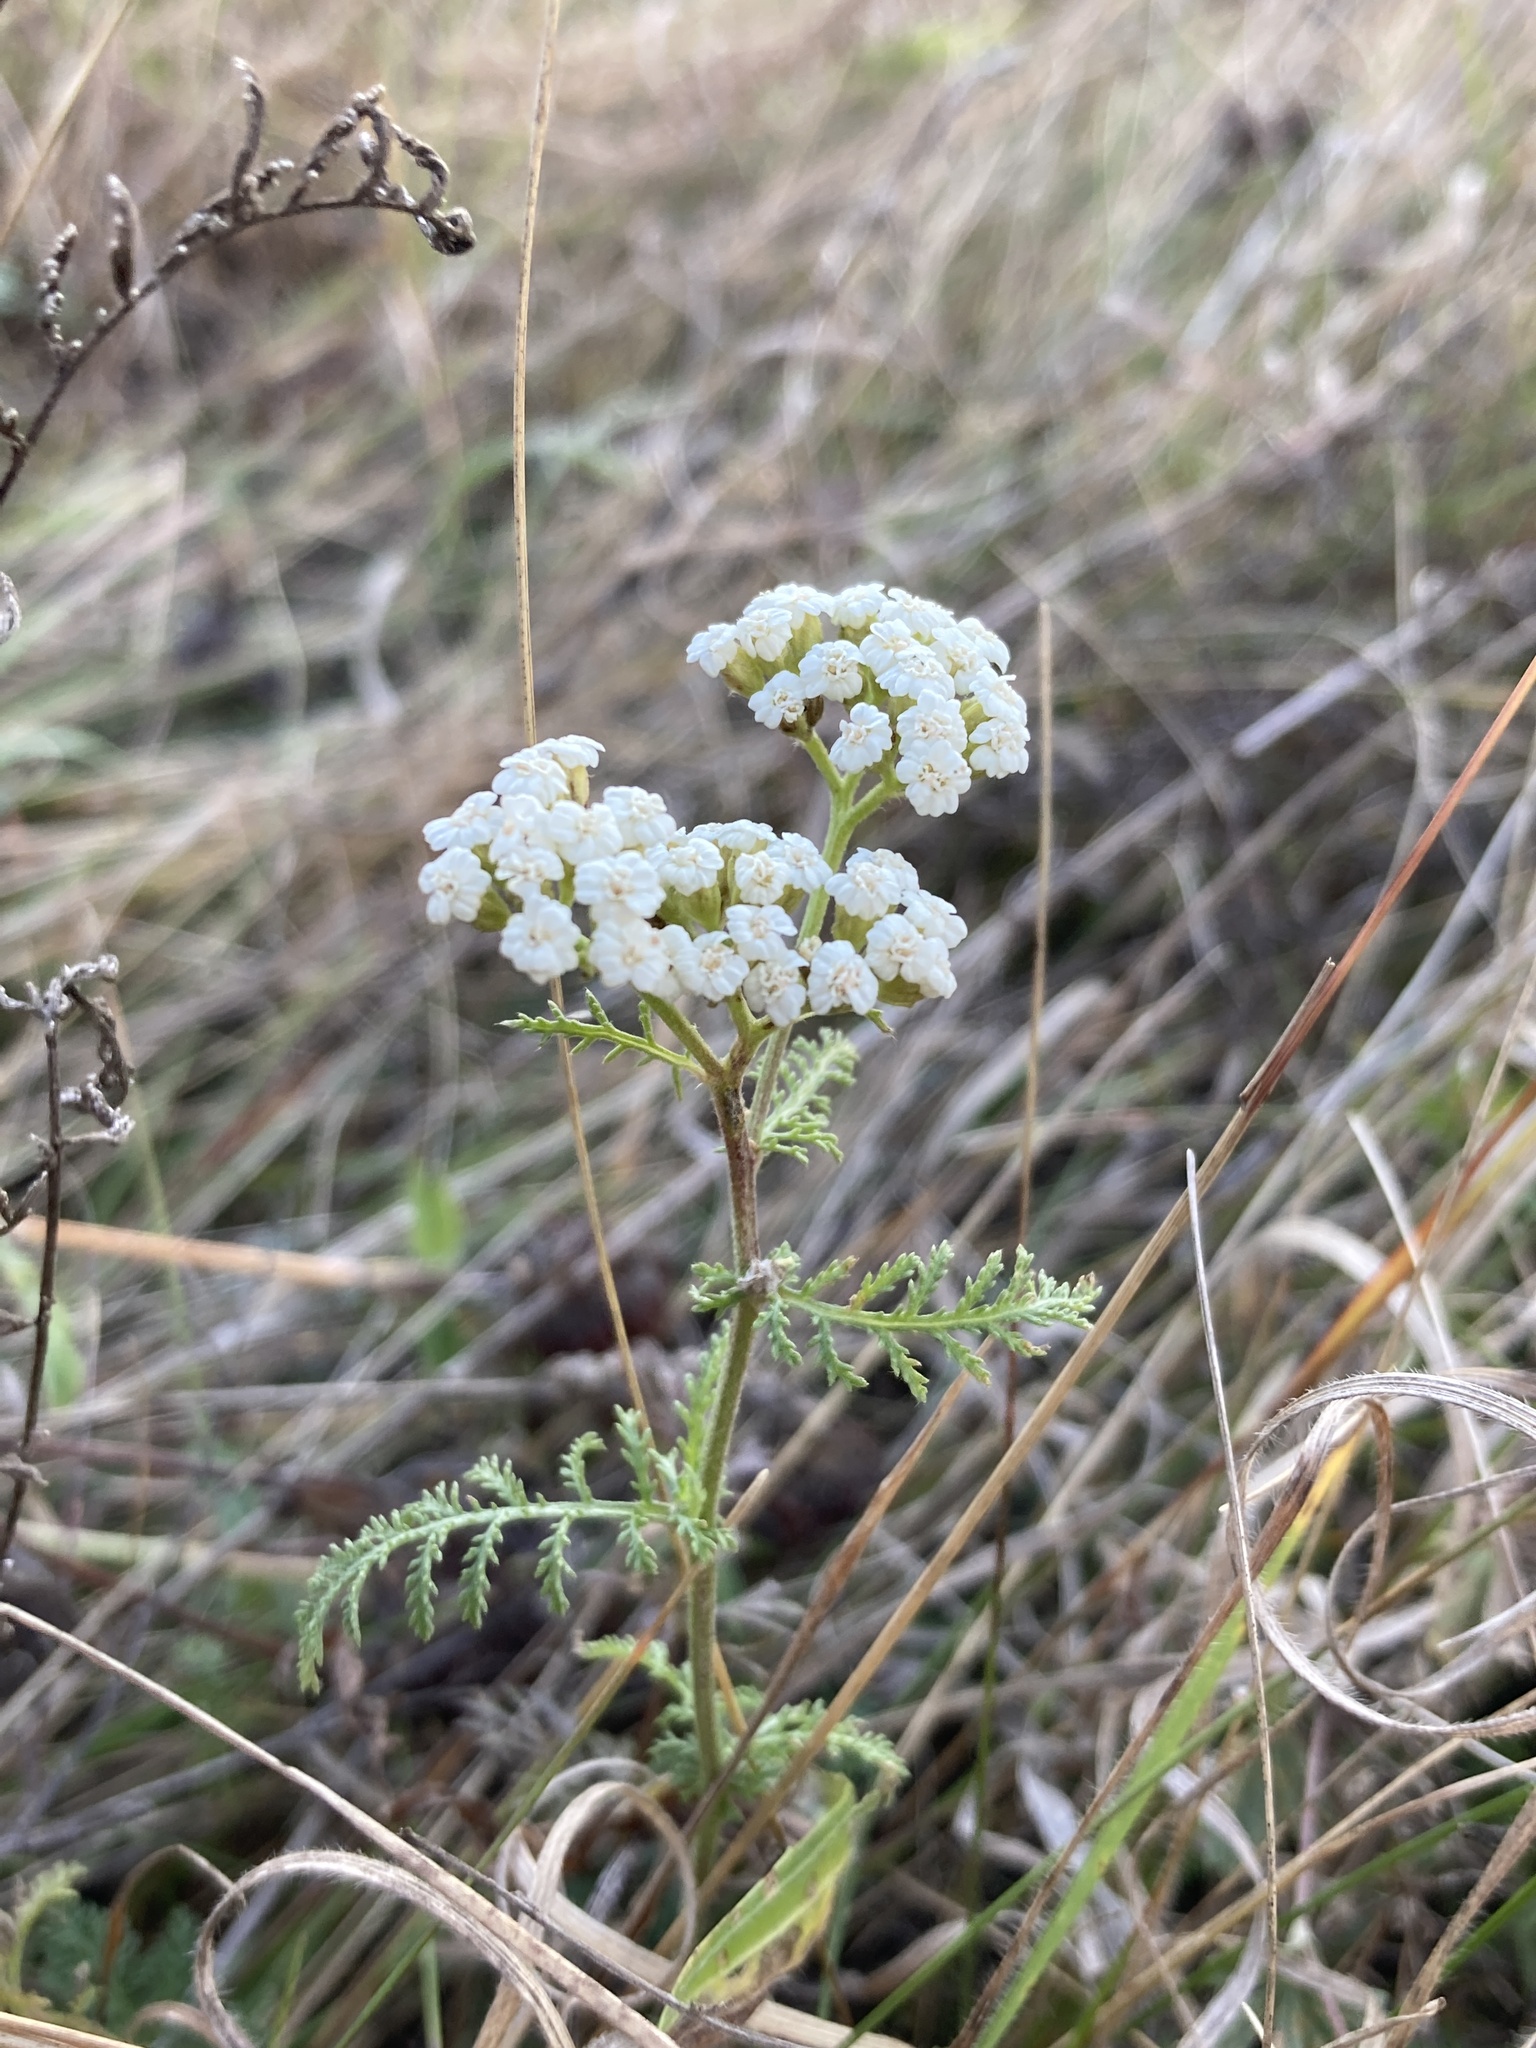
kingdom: Plantae
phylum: Tracheophyta
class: Magnoliopsida
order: Asterales
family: Asteraceae
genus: Achillea
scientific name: Achillea nobilis
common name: Noble yarrow
